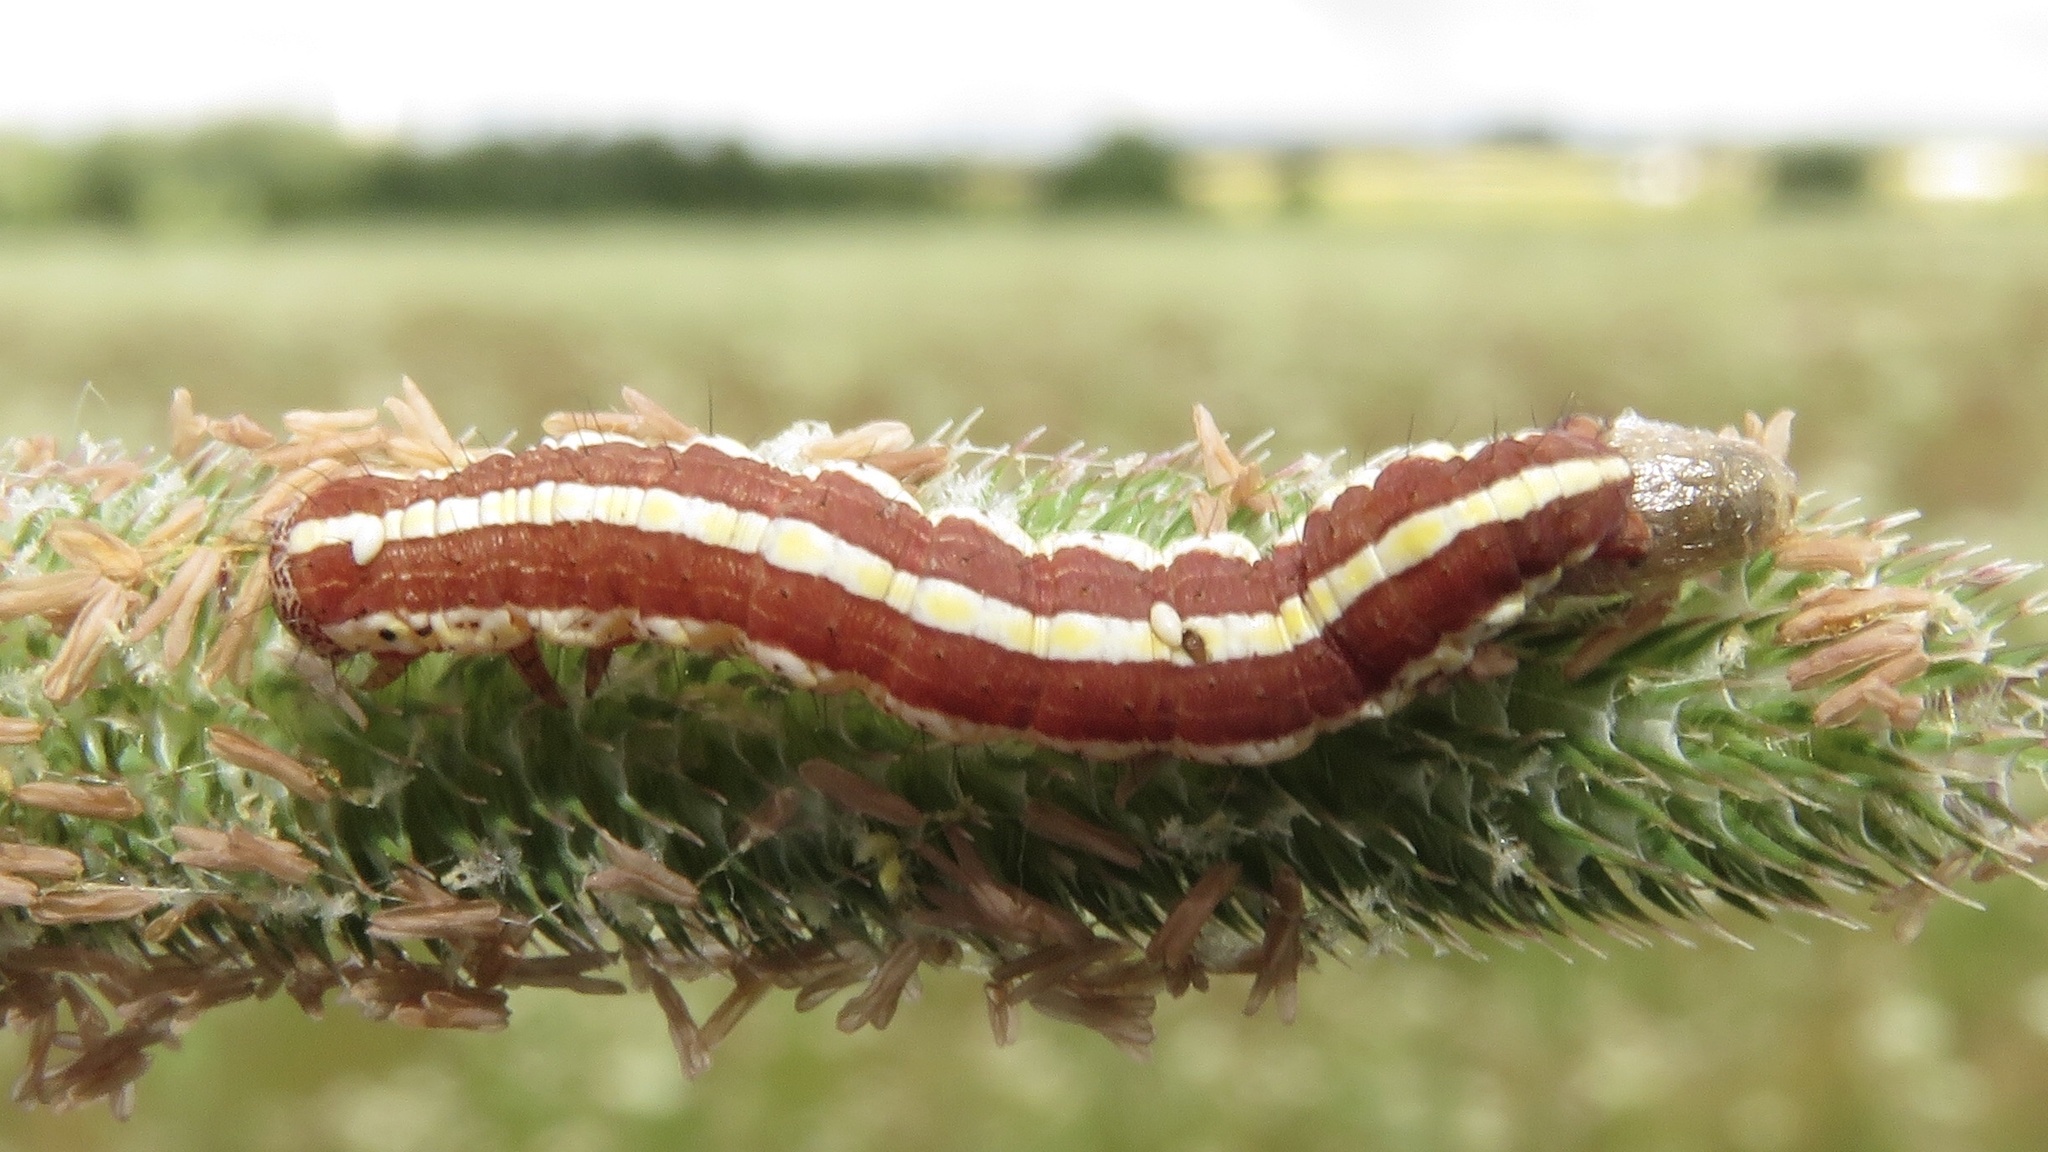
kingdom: Animalia
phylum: Arthropoda
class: Insecta
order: Lepidoptera
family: Noctuidae
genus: Cucullia
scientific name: Cucullia intermedia
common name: Goldenrod cutworm
